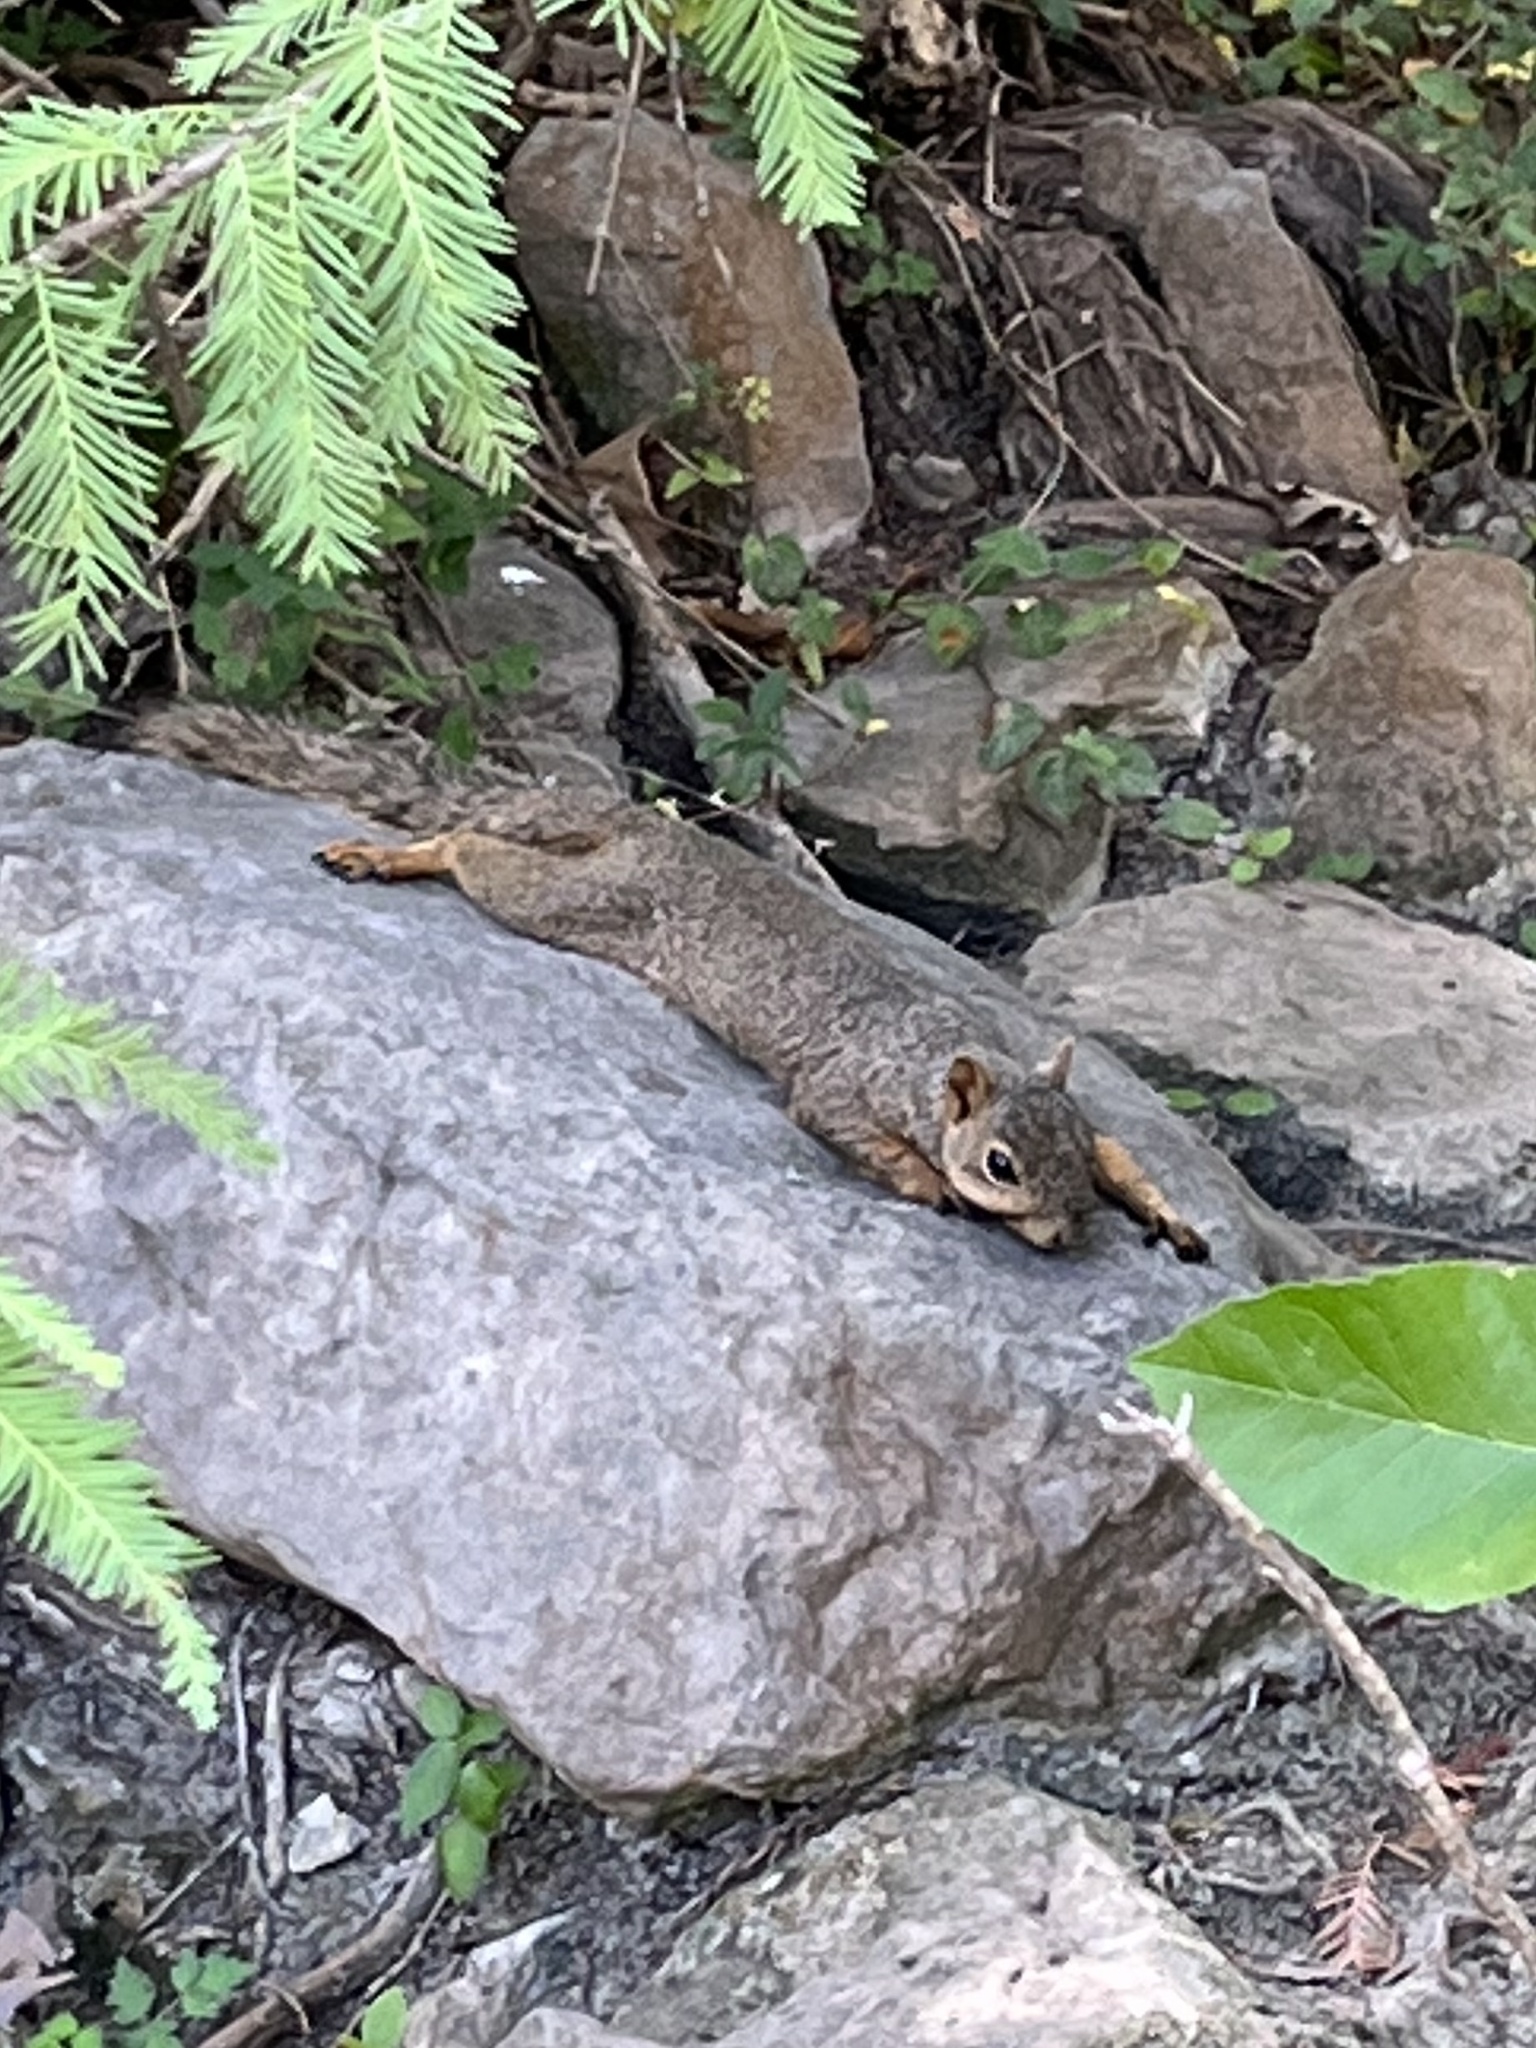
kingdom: Animalia
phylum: Chordata
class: Mammalia
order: Rodentia
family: Sciuridae
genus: Sciurus
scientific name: Sciurus niger
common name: Fox squirrel
